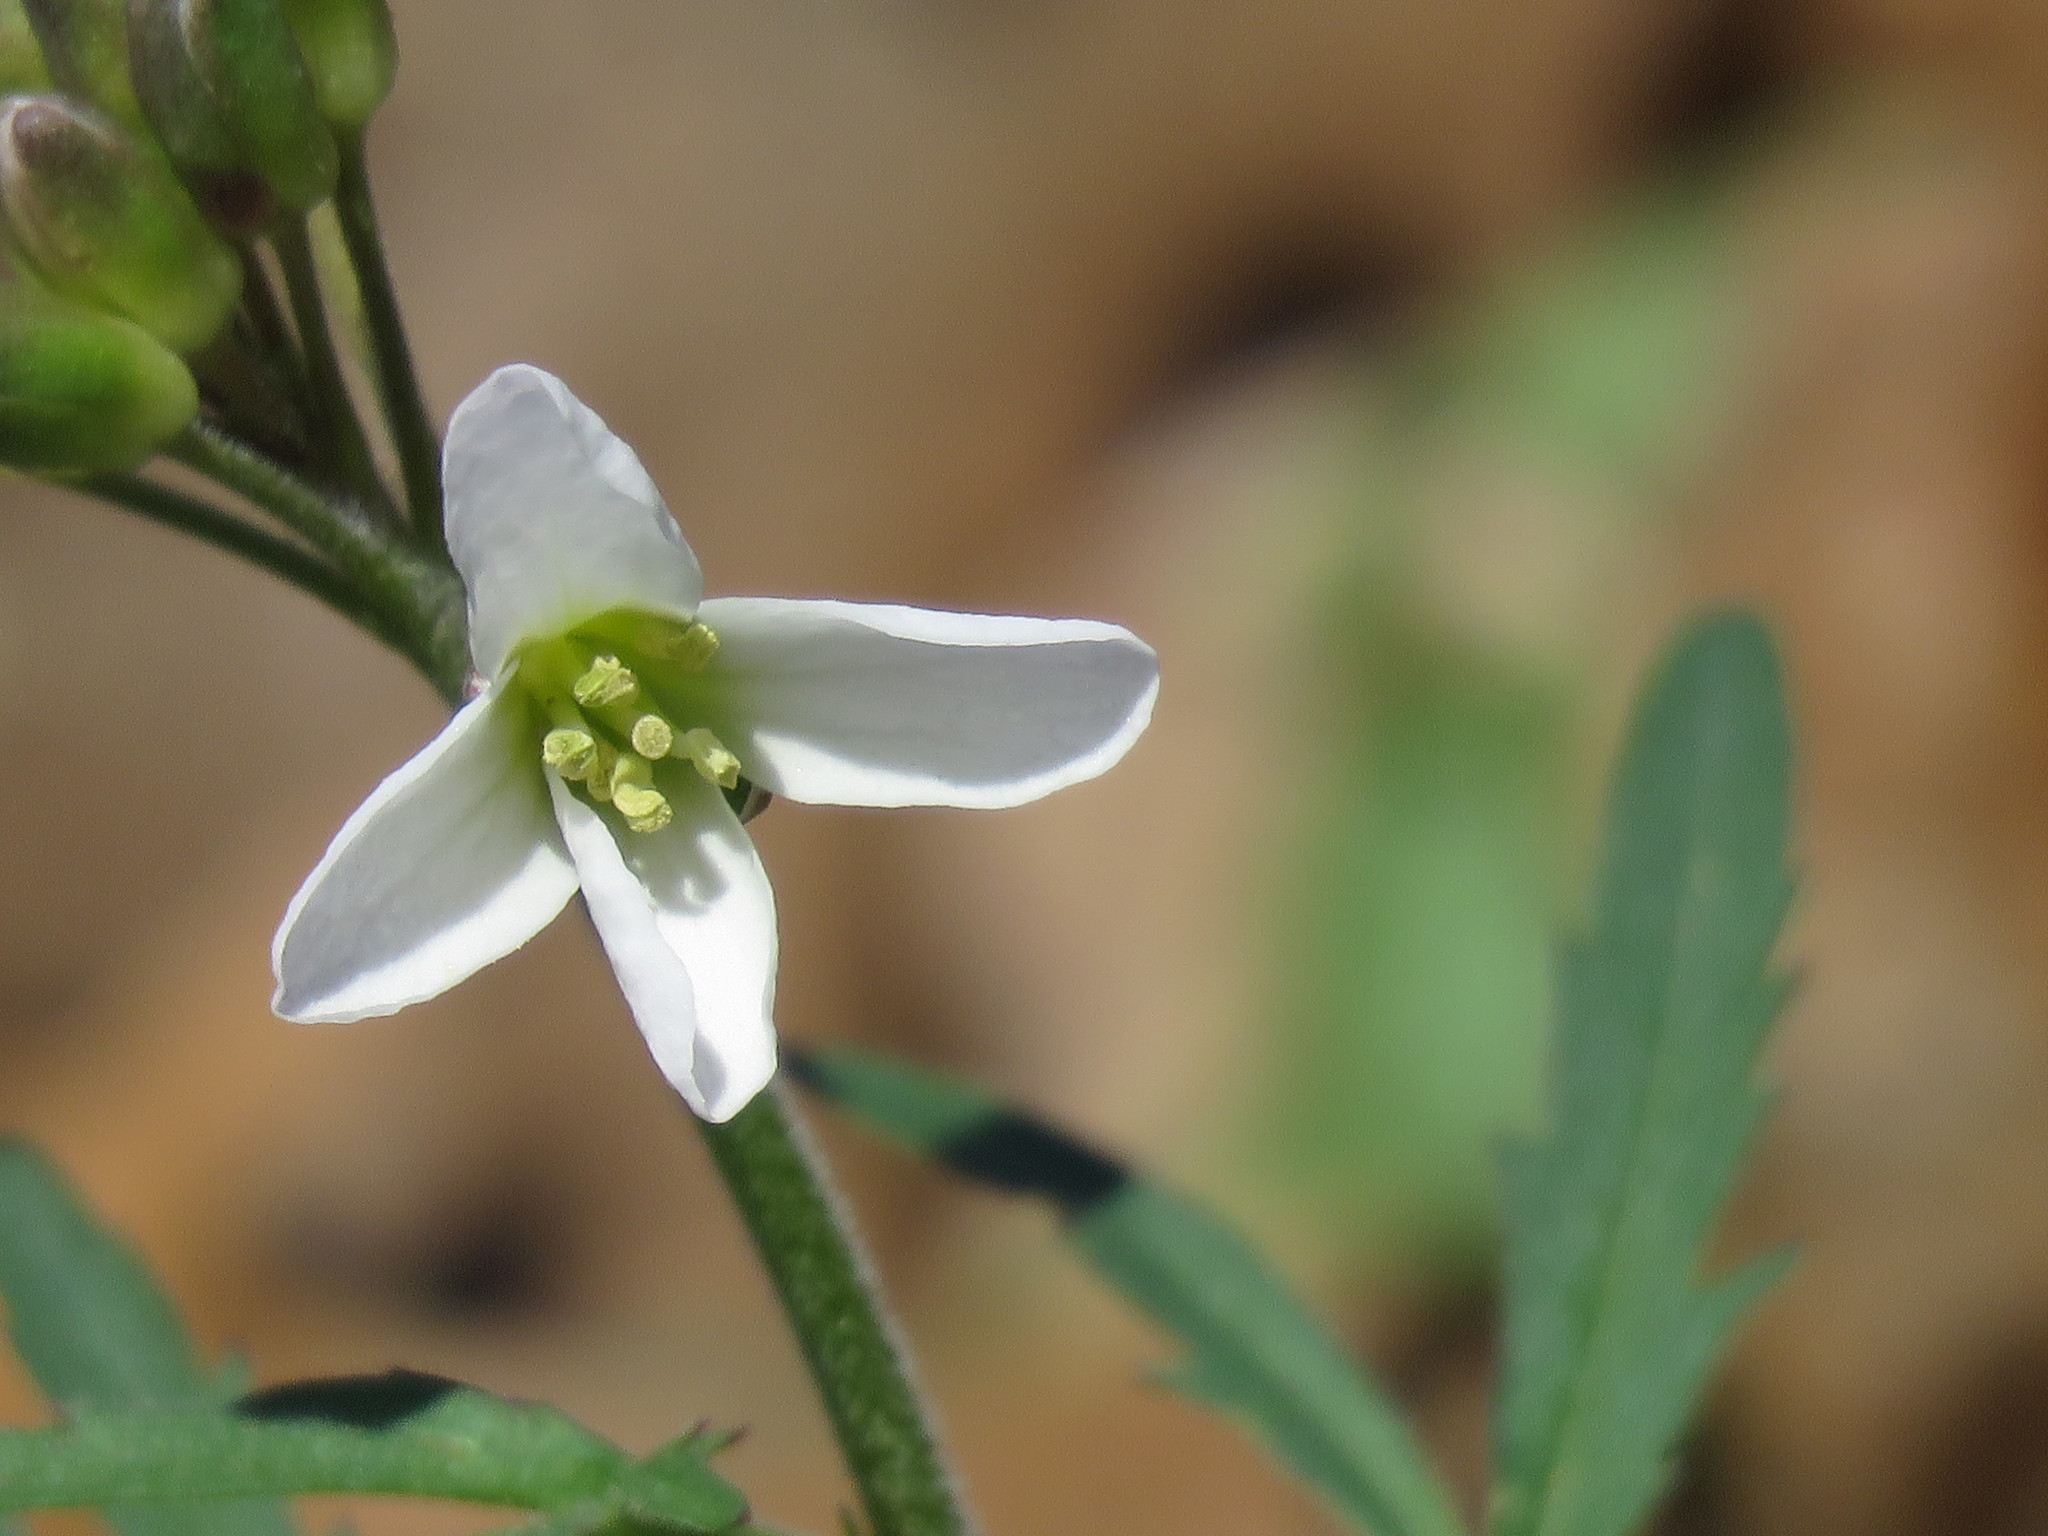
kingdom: Plantae
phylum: Tracheophyta
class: Magnoliopsida
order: Brassicales
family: Brassicaceae
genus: Cardamine
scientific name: Cardamine concatenata
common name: Cut-leaf toothcup
